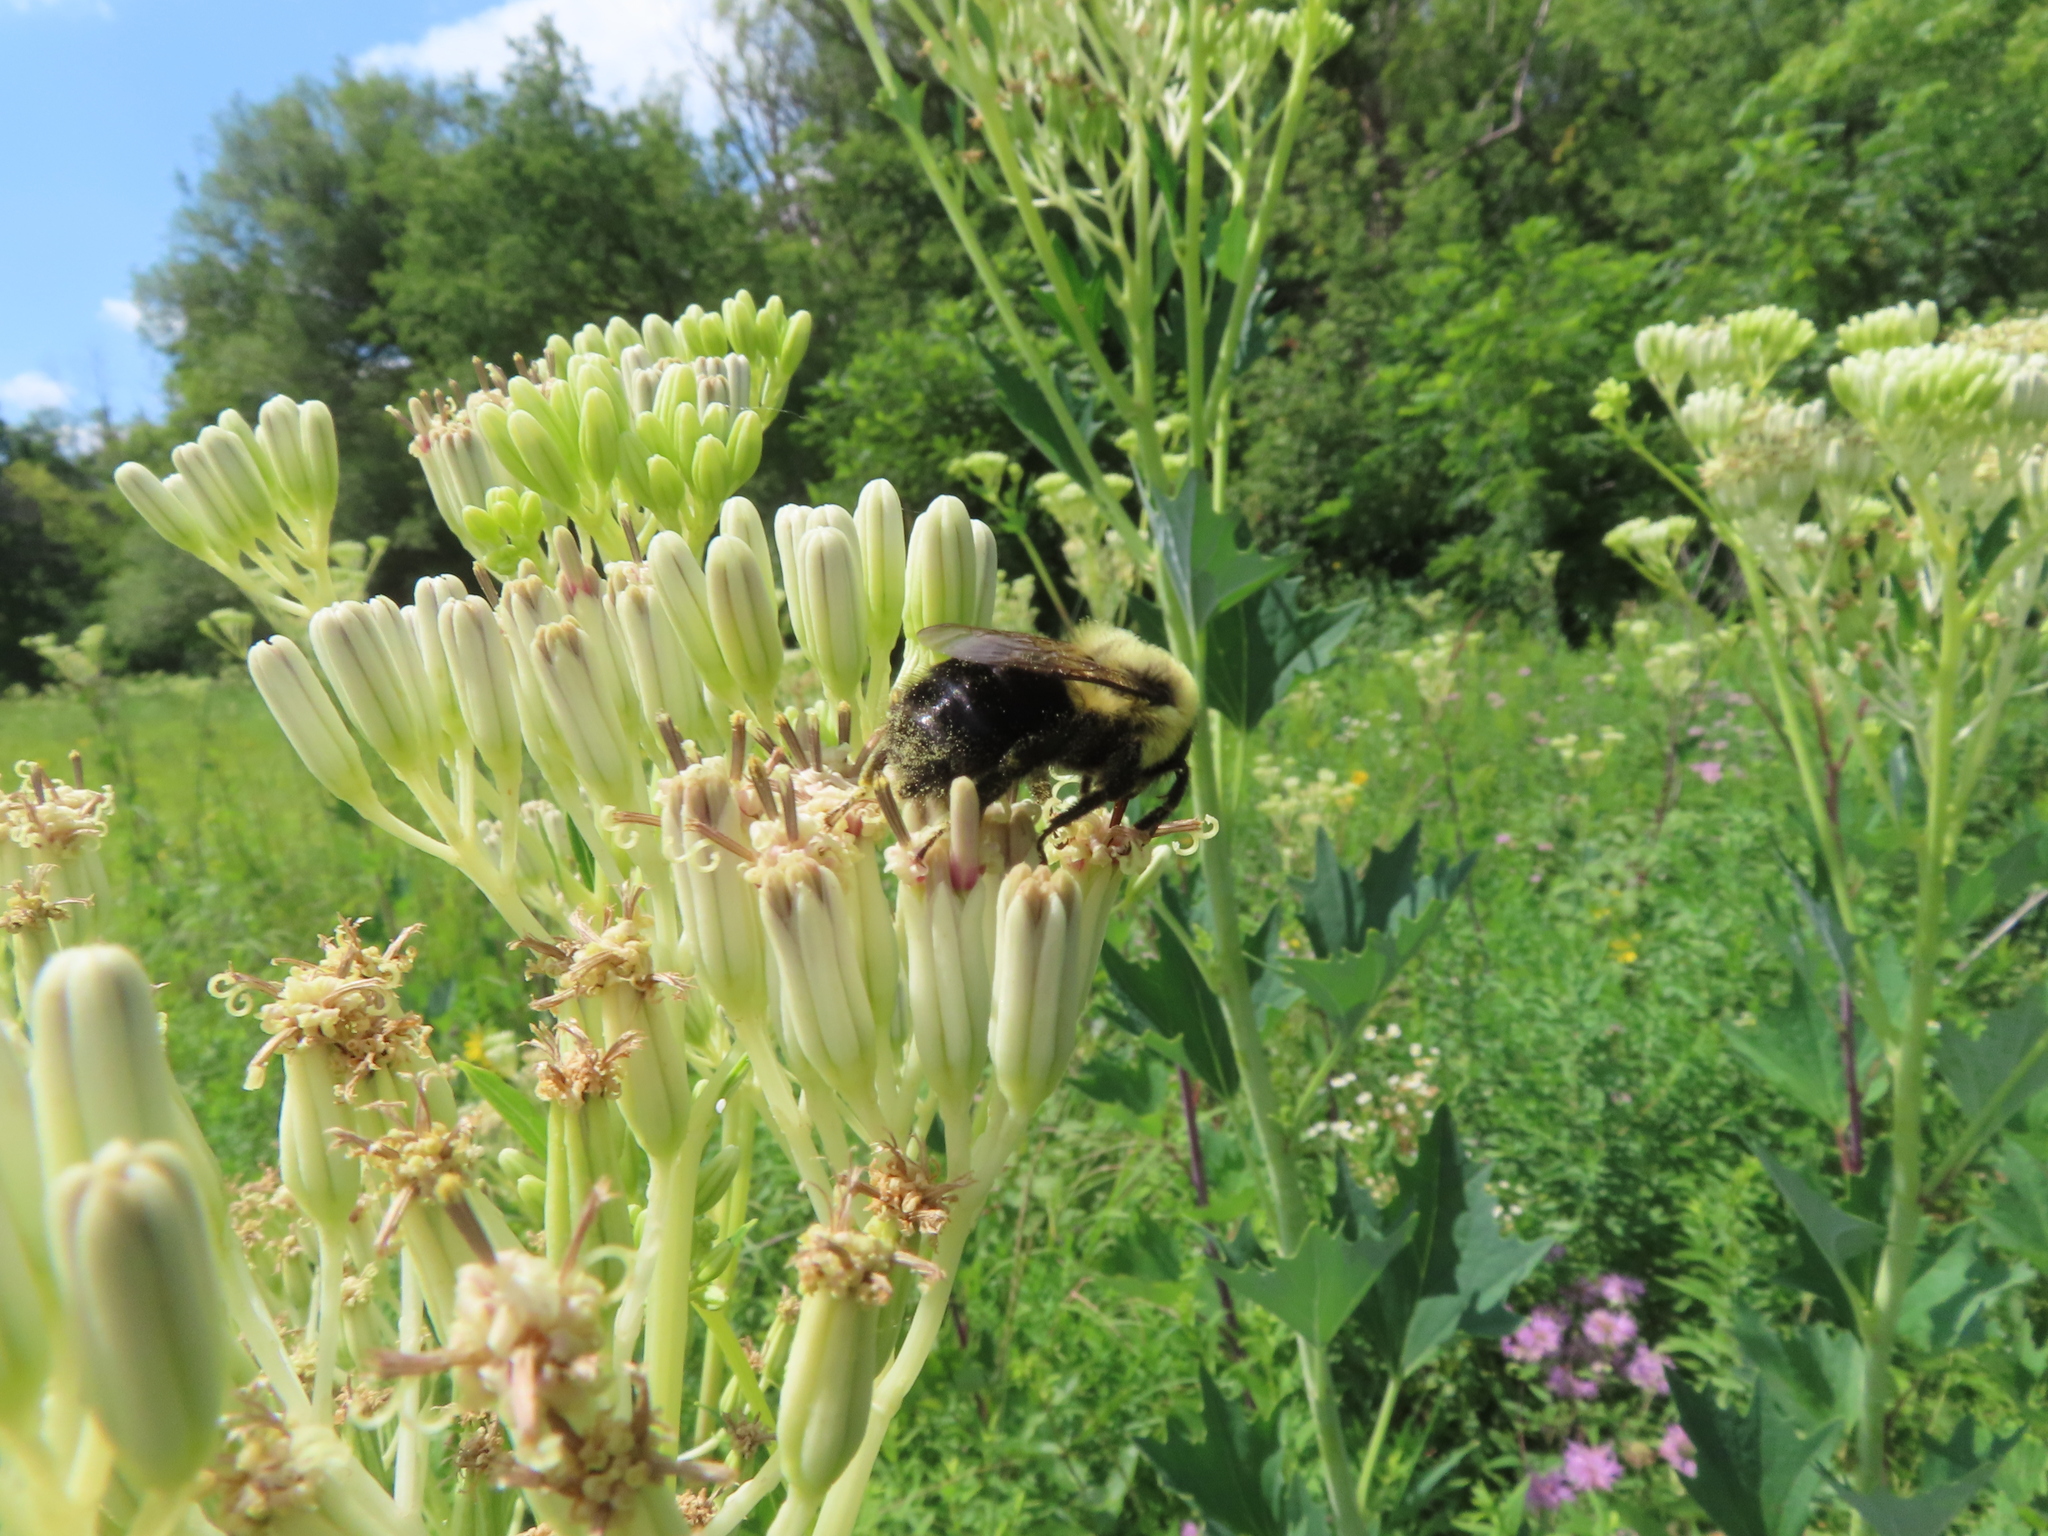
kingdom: Plantae
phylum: Tracheophyta
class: Magnoliopsida
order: Asterales
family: Asteraceae
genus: Arnoglossum
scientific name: Arnoglossum atriplicifolium
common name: Pale indian-plantain
